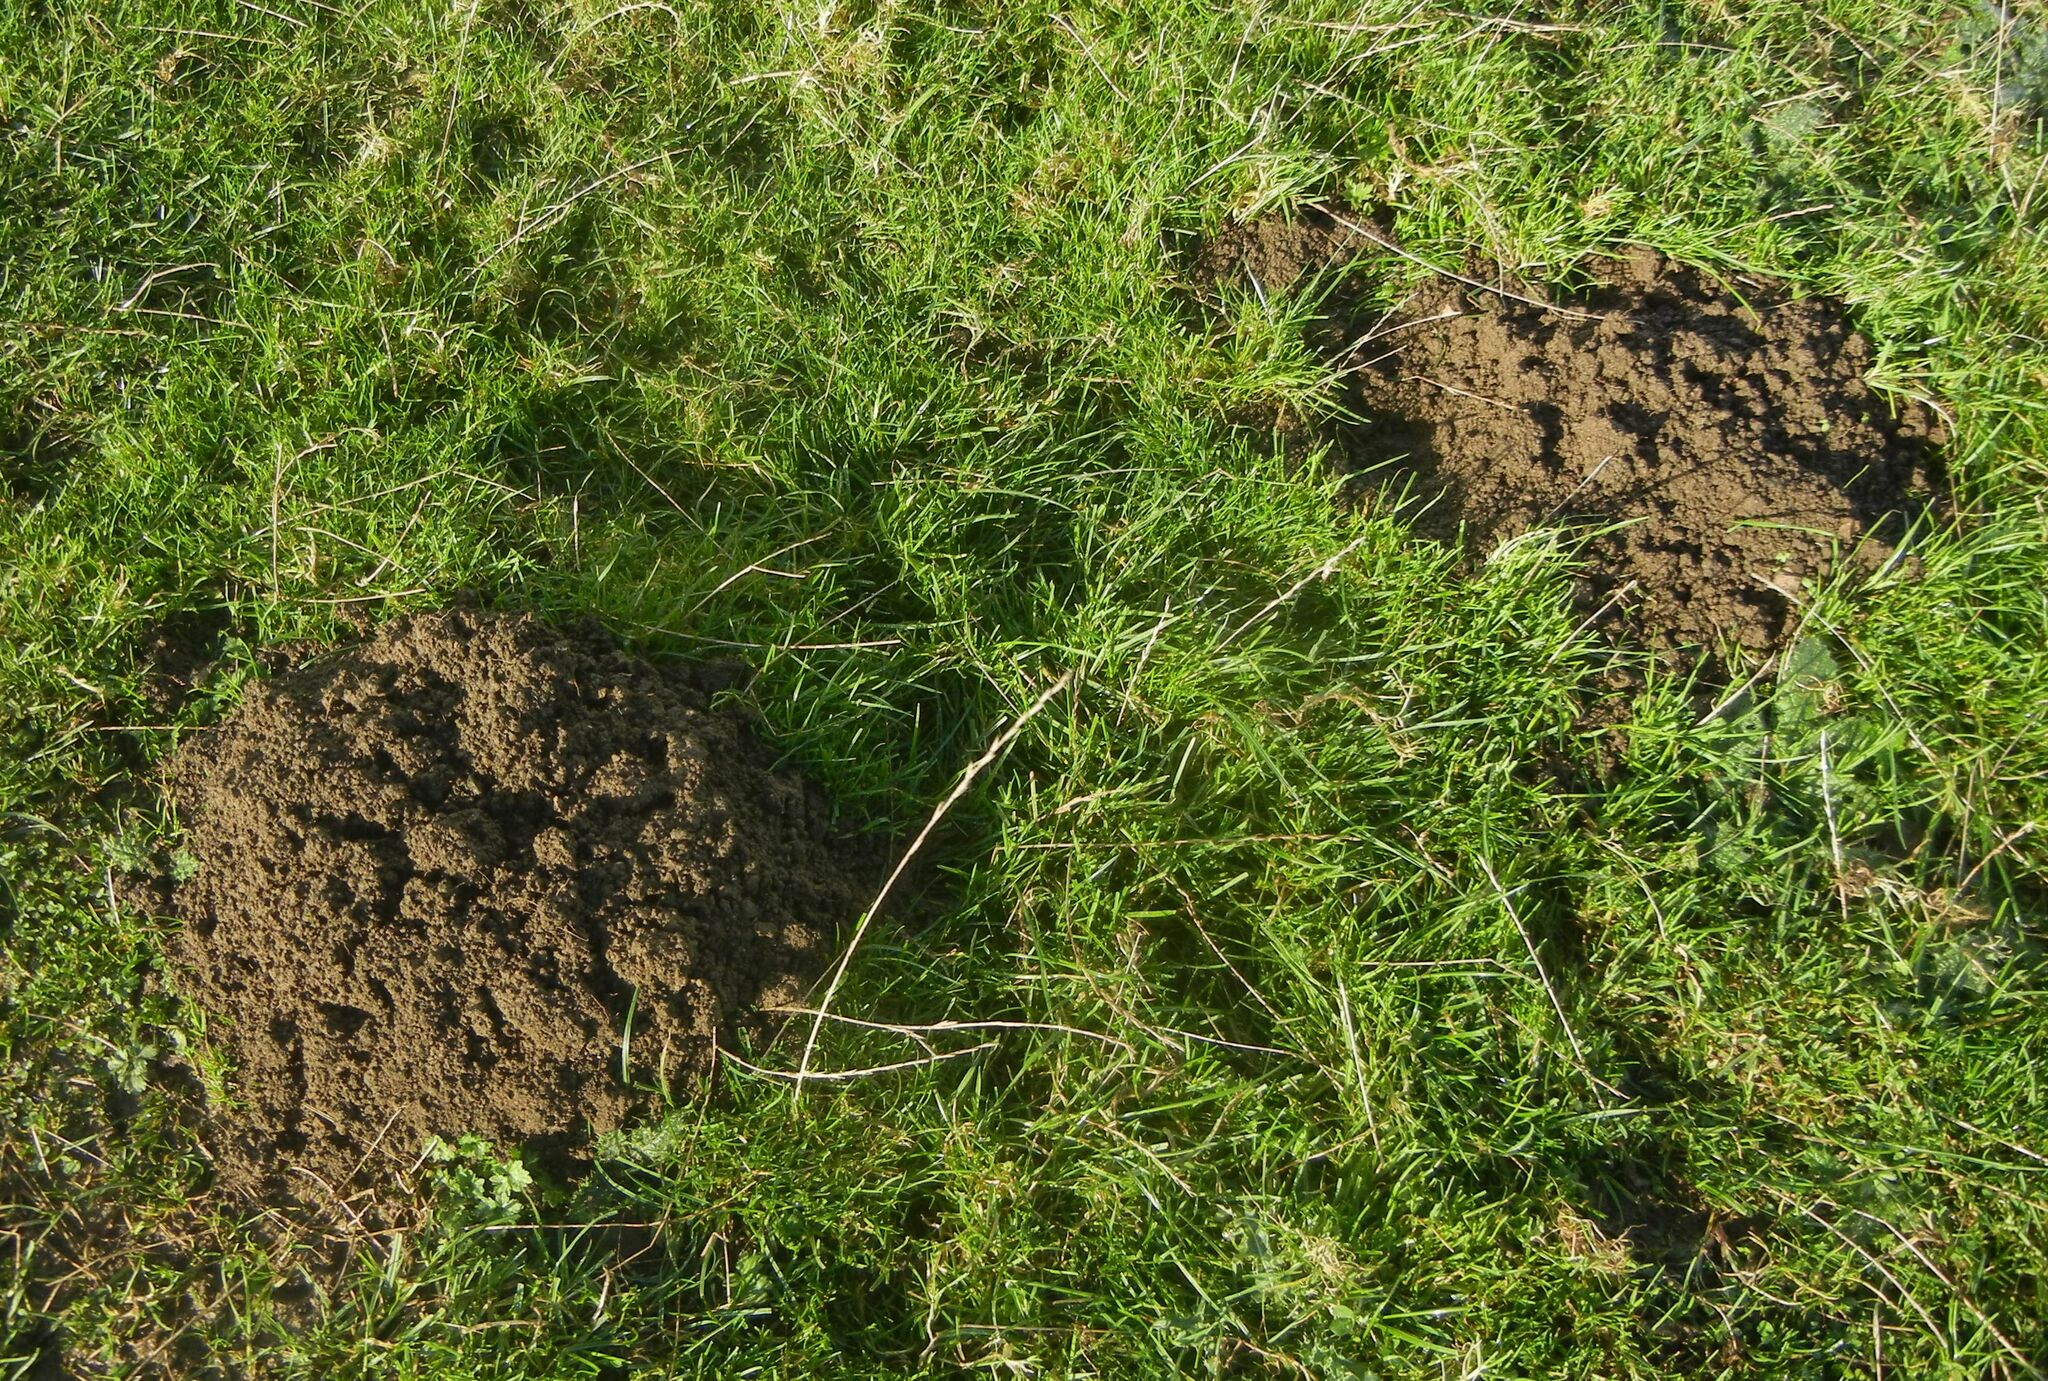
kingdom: Animalia
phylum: Chordata
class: Mammalia
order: Soricomorpha
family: Talpidae
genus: Talpa
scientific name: Talpa europaea
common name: European mole
